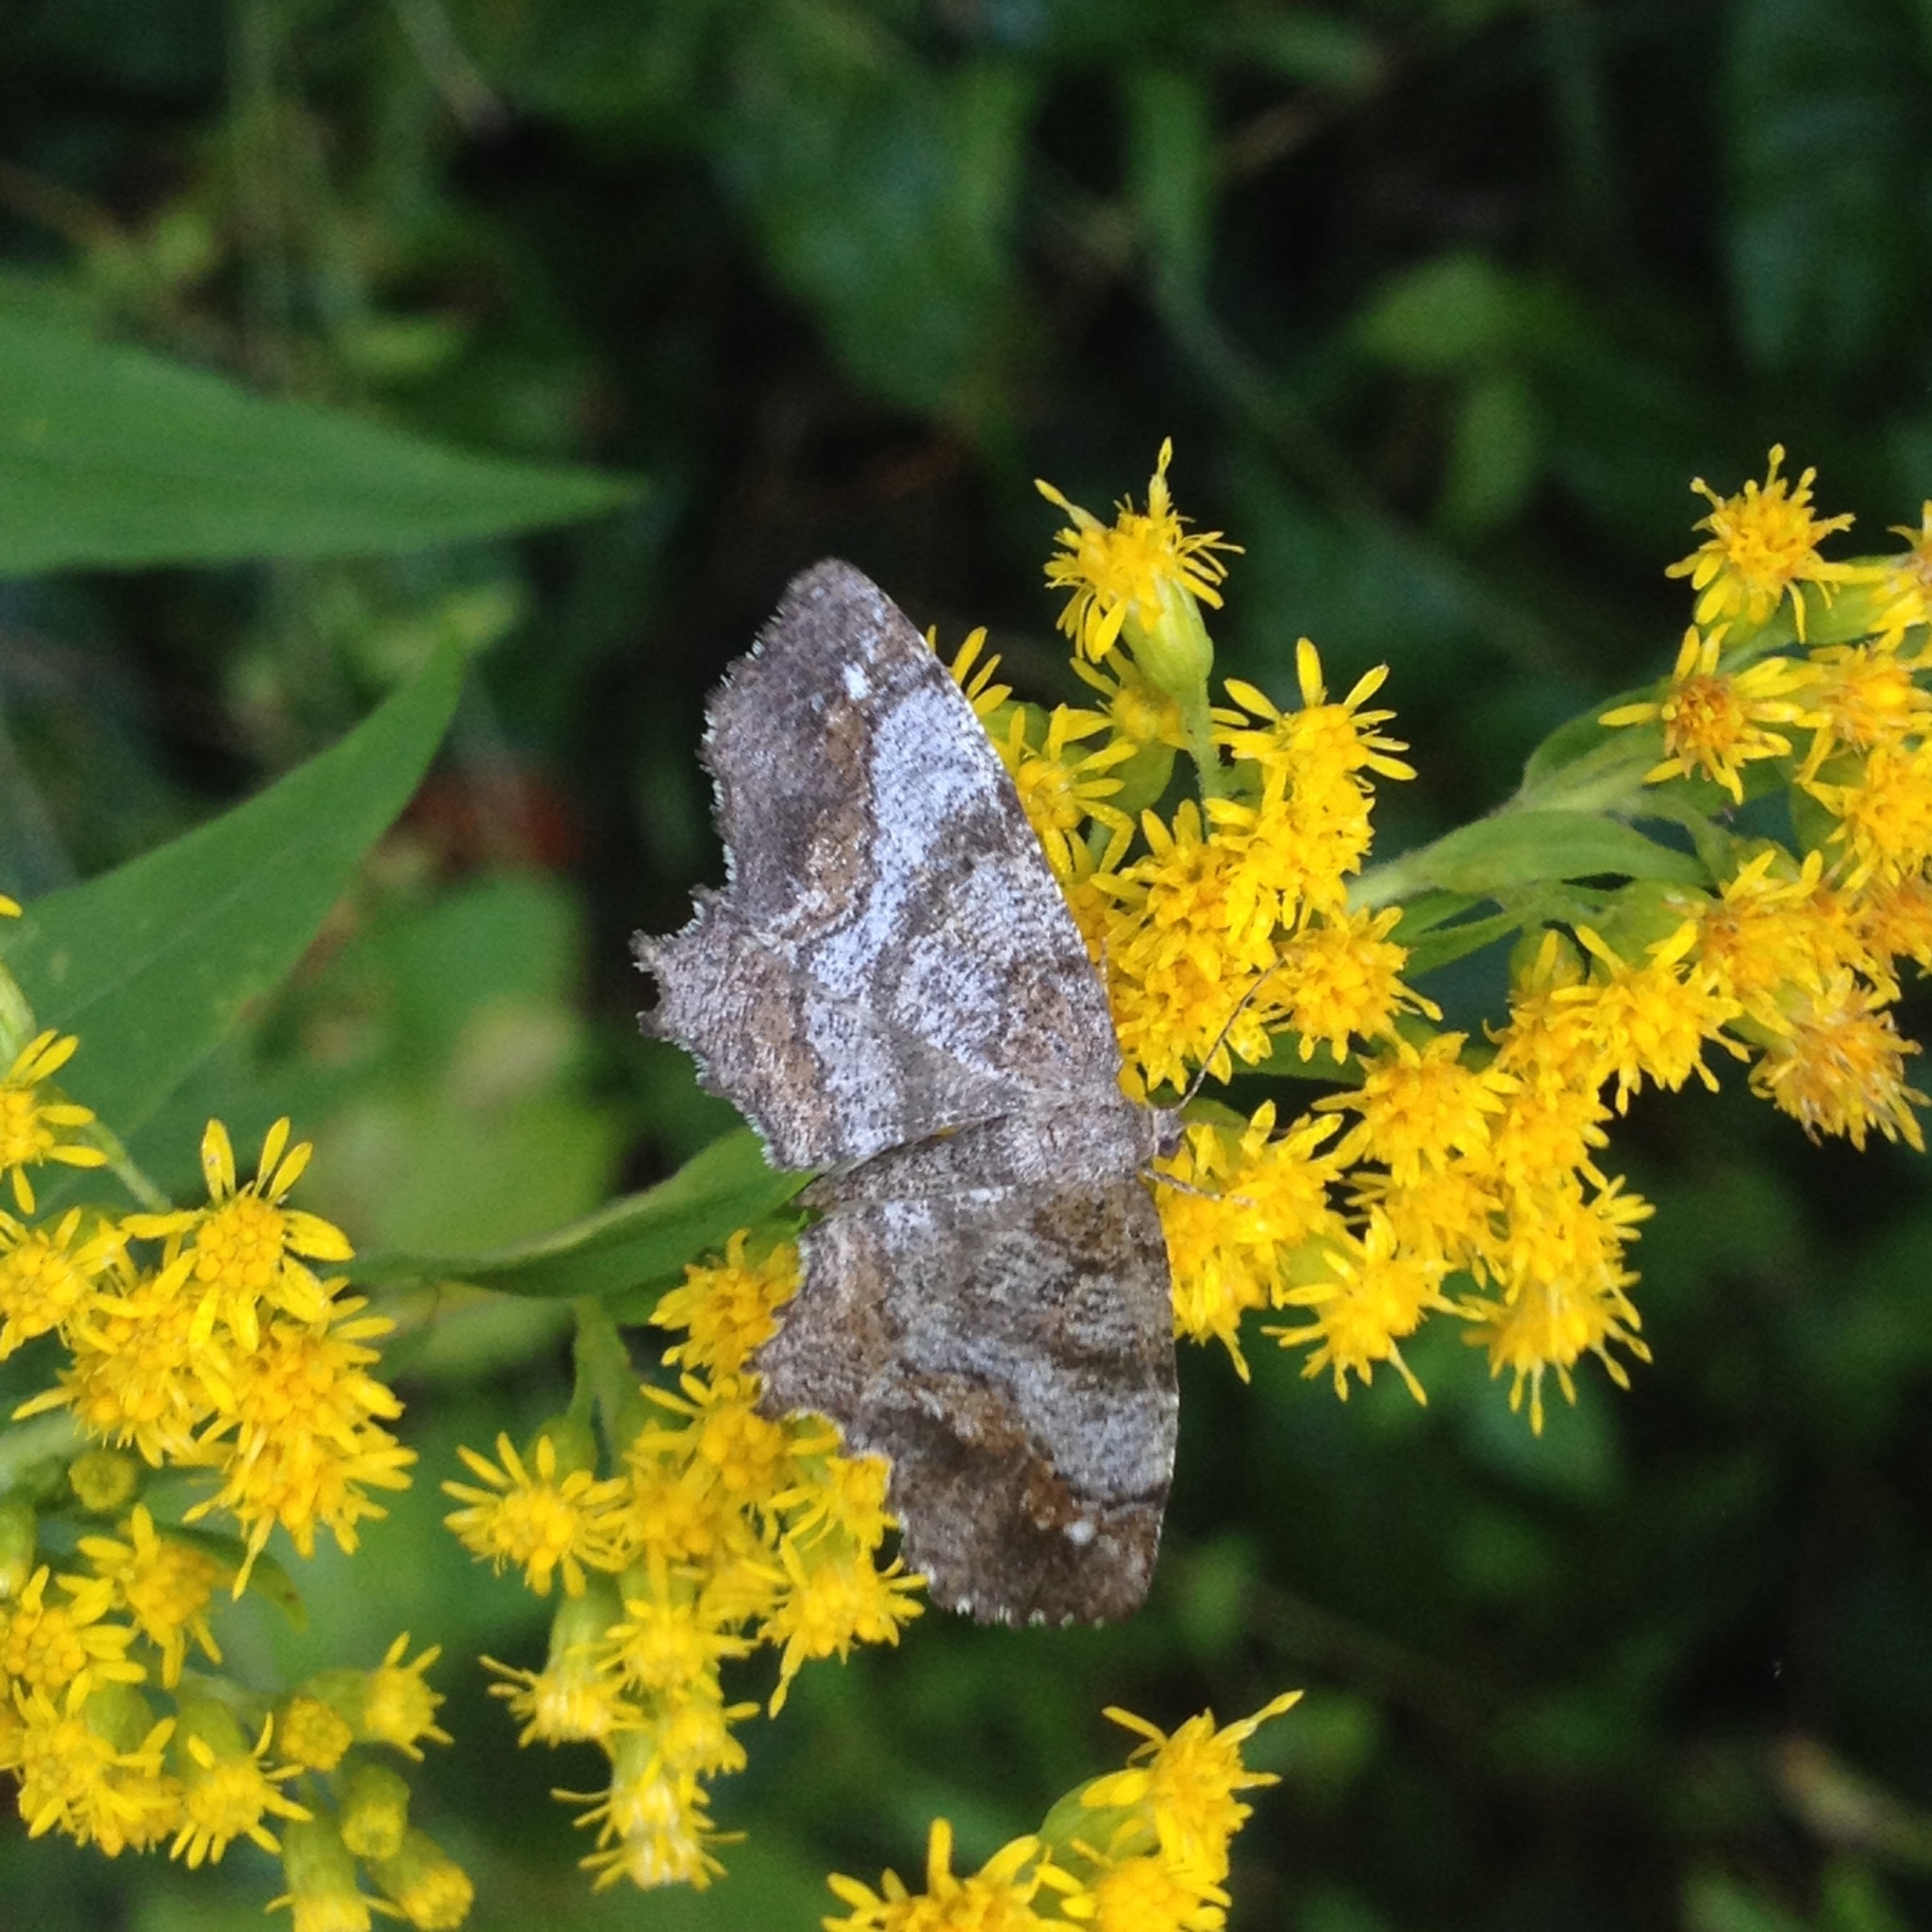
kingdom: Animalia
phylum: Arthropoda
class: Insecta
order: Lepidoptera
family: Geometridae
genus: Hypagyrtis
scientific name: Hypagyrtis unipunctata
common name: One-spotted variant
